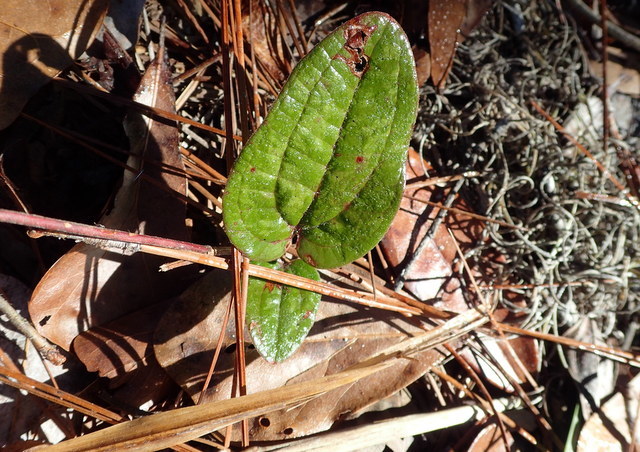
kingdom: Plantae
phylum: Tracheophyta
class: Liliopsida
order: Liliales
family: Smilacaceae
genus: Smilax
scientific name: Smilax pumila
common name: Sarsaparilla-vine
